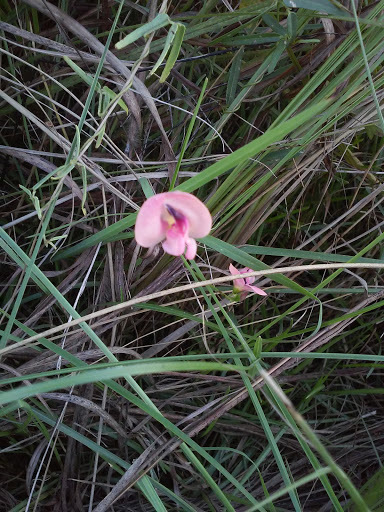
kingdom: Plantae
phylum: Tracheophyta
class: Magnoliopsida
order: Fabales
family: Fabaceae
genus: Strophostyles
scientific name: Strophostyles umbellata
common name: Perennial wild bean
